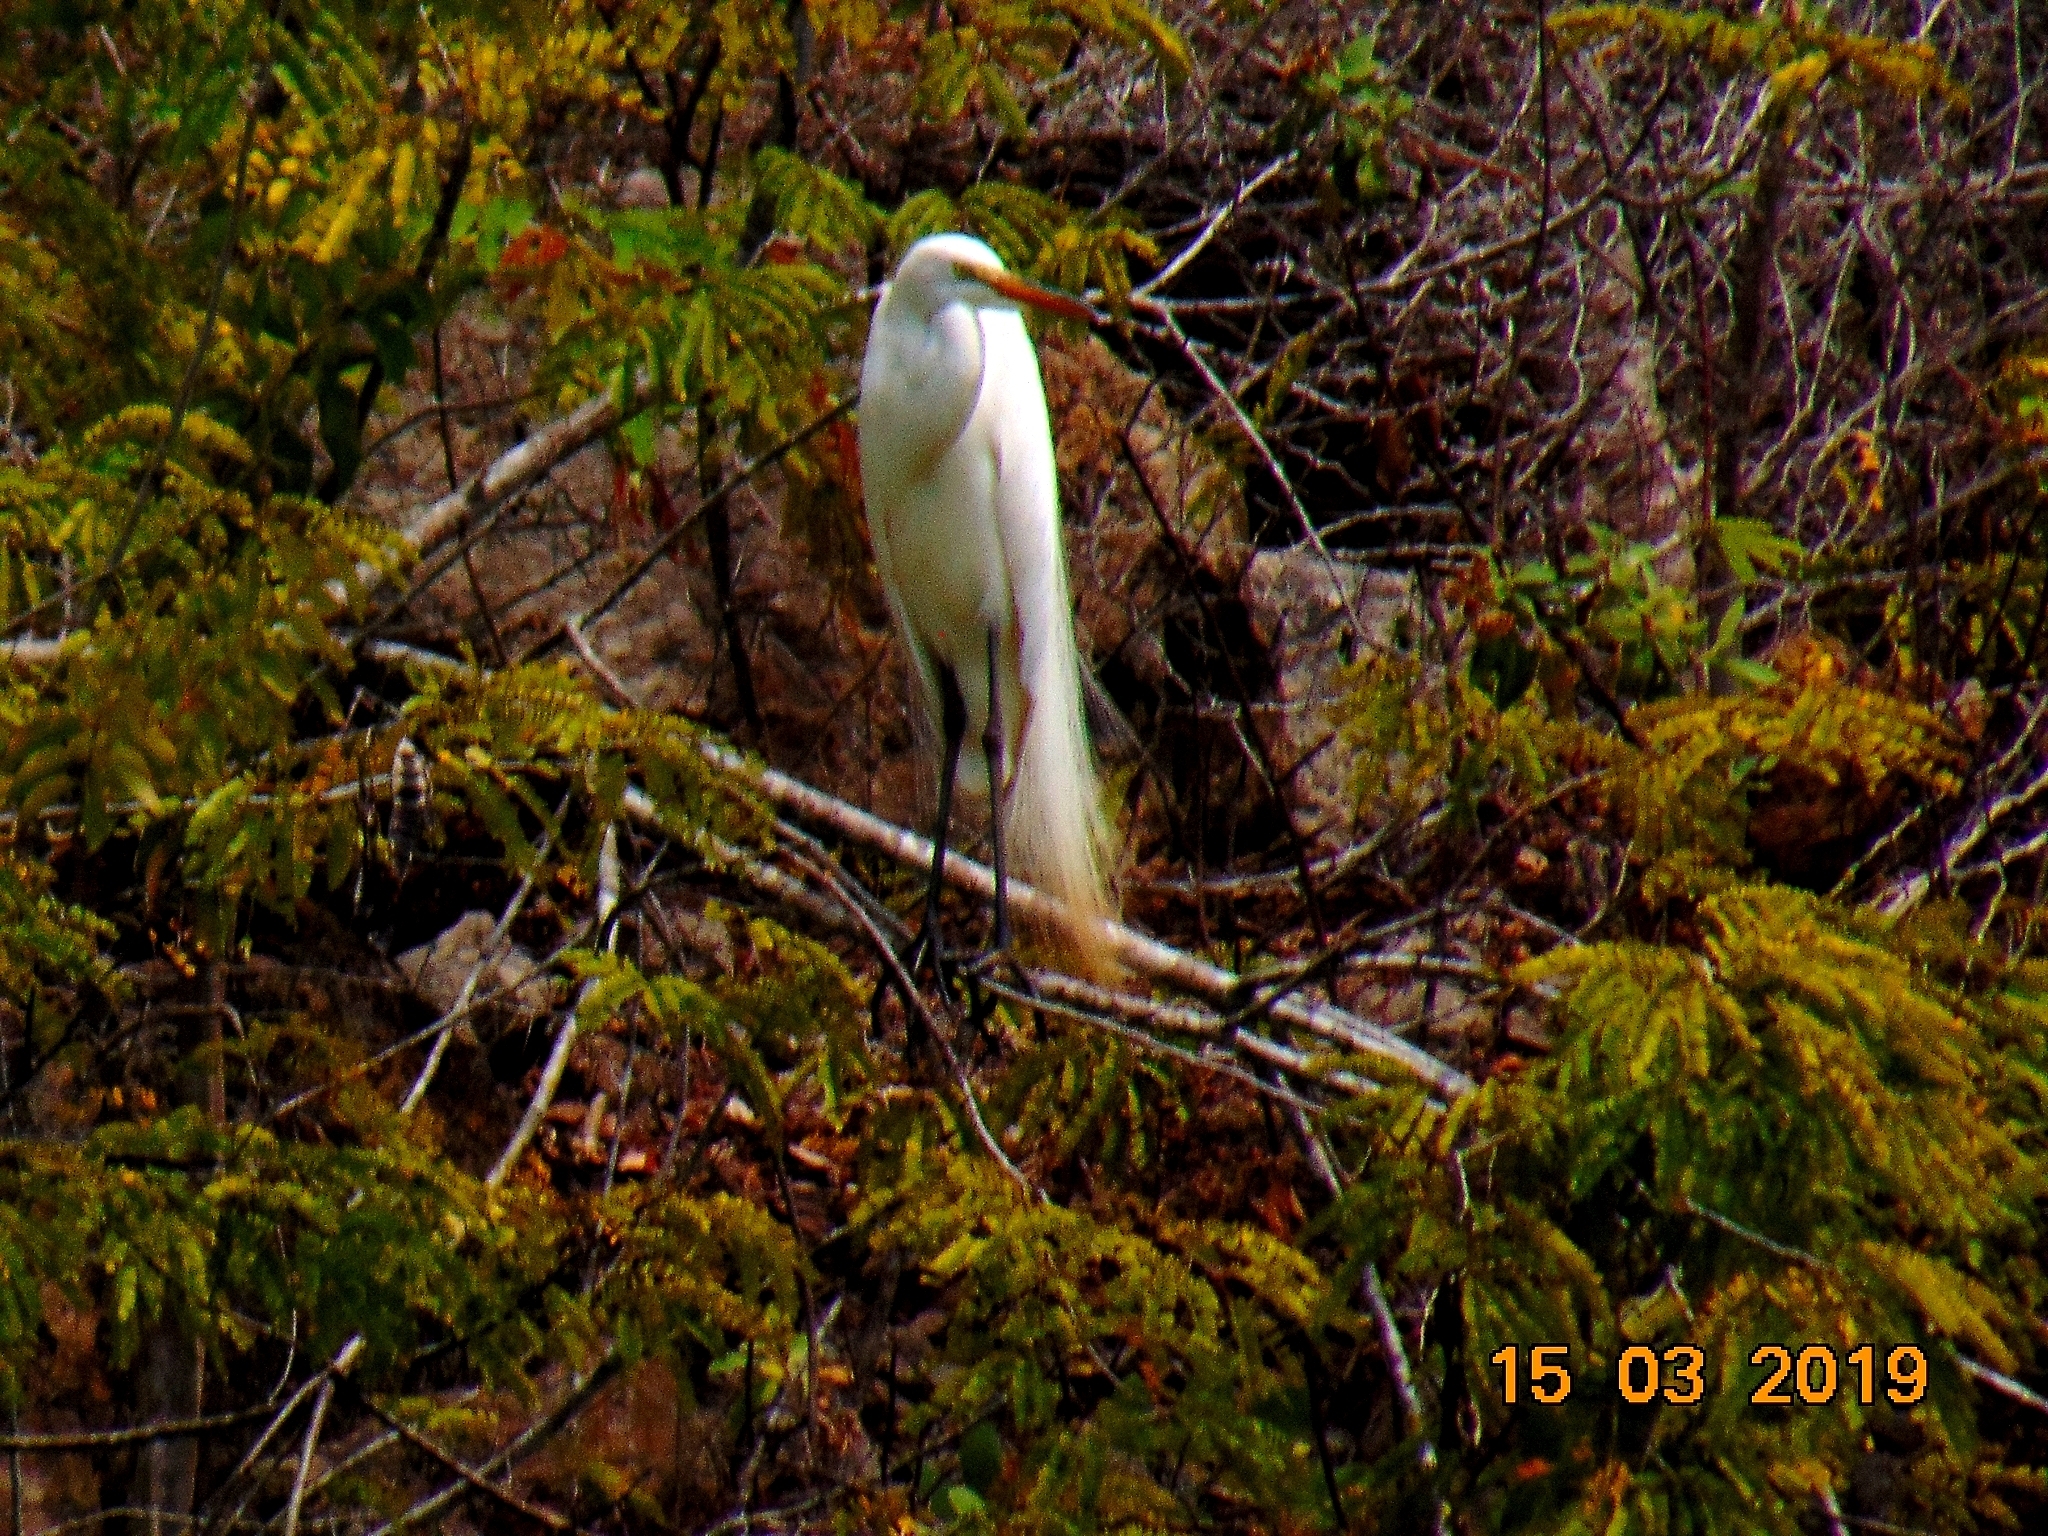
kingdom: Animalia
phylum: Chordata
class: Aves
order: Pelecaniformes
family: Ardeidae
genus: Ardea
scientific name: Ardea alba
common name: Great egret
